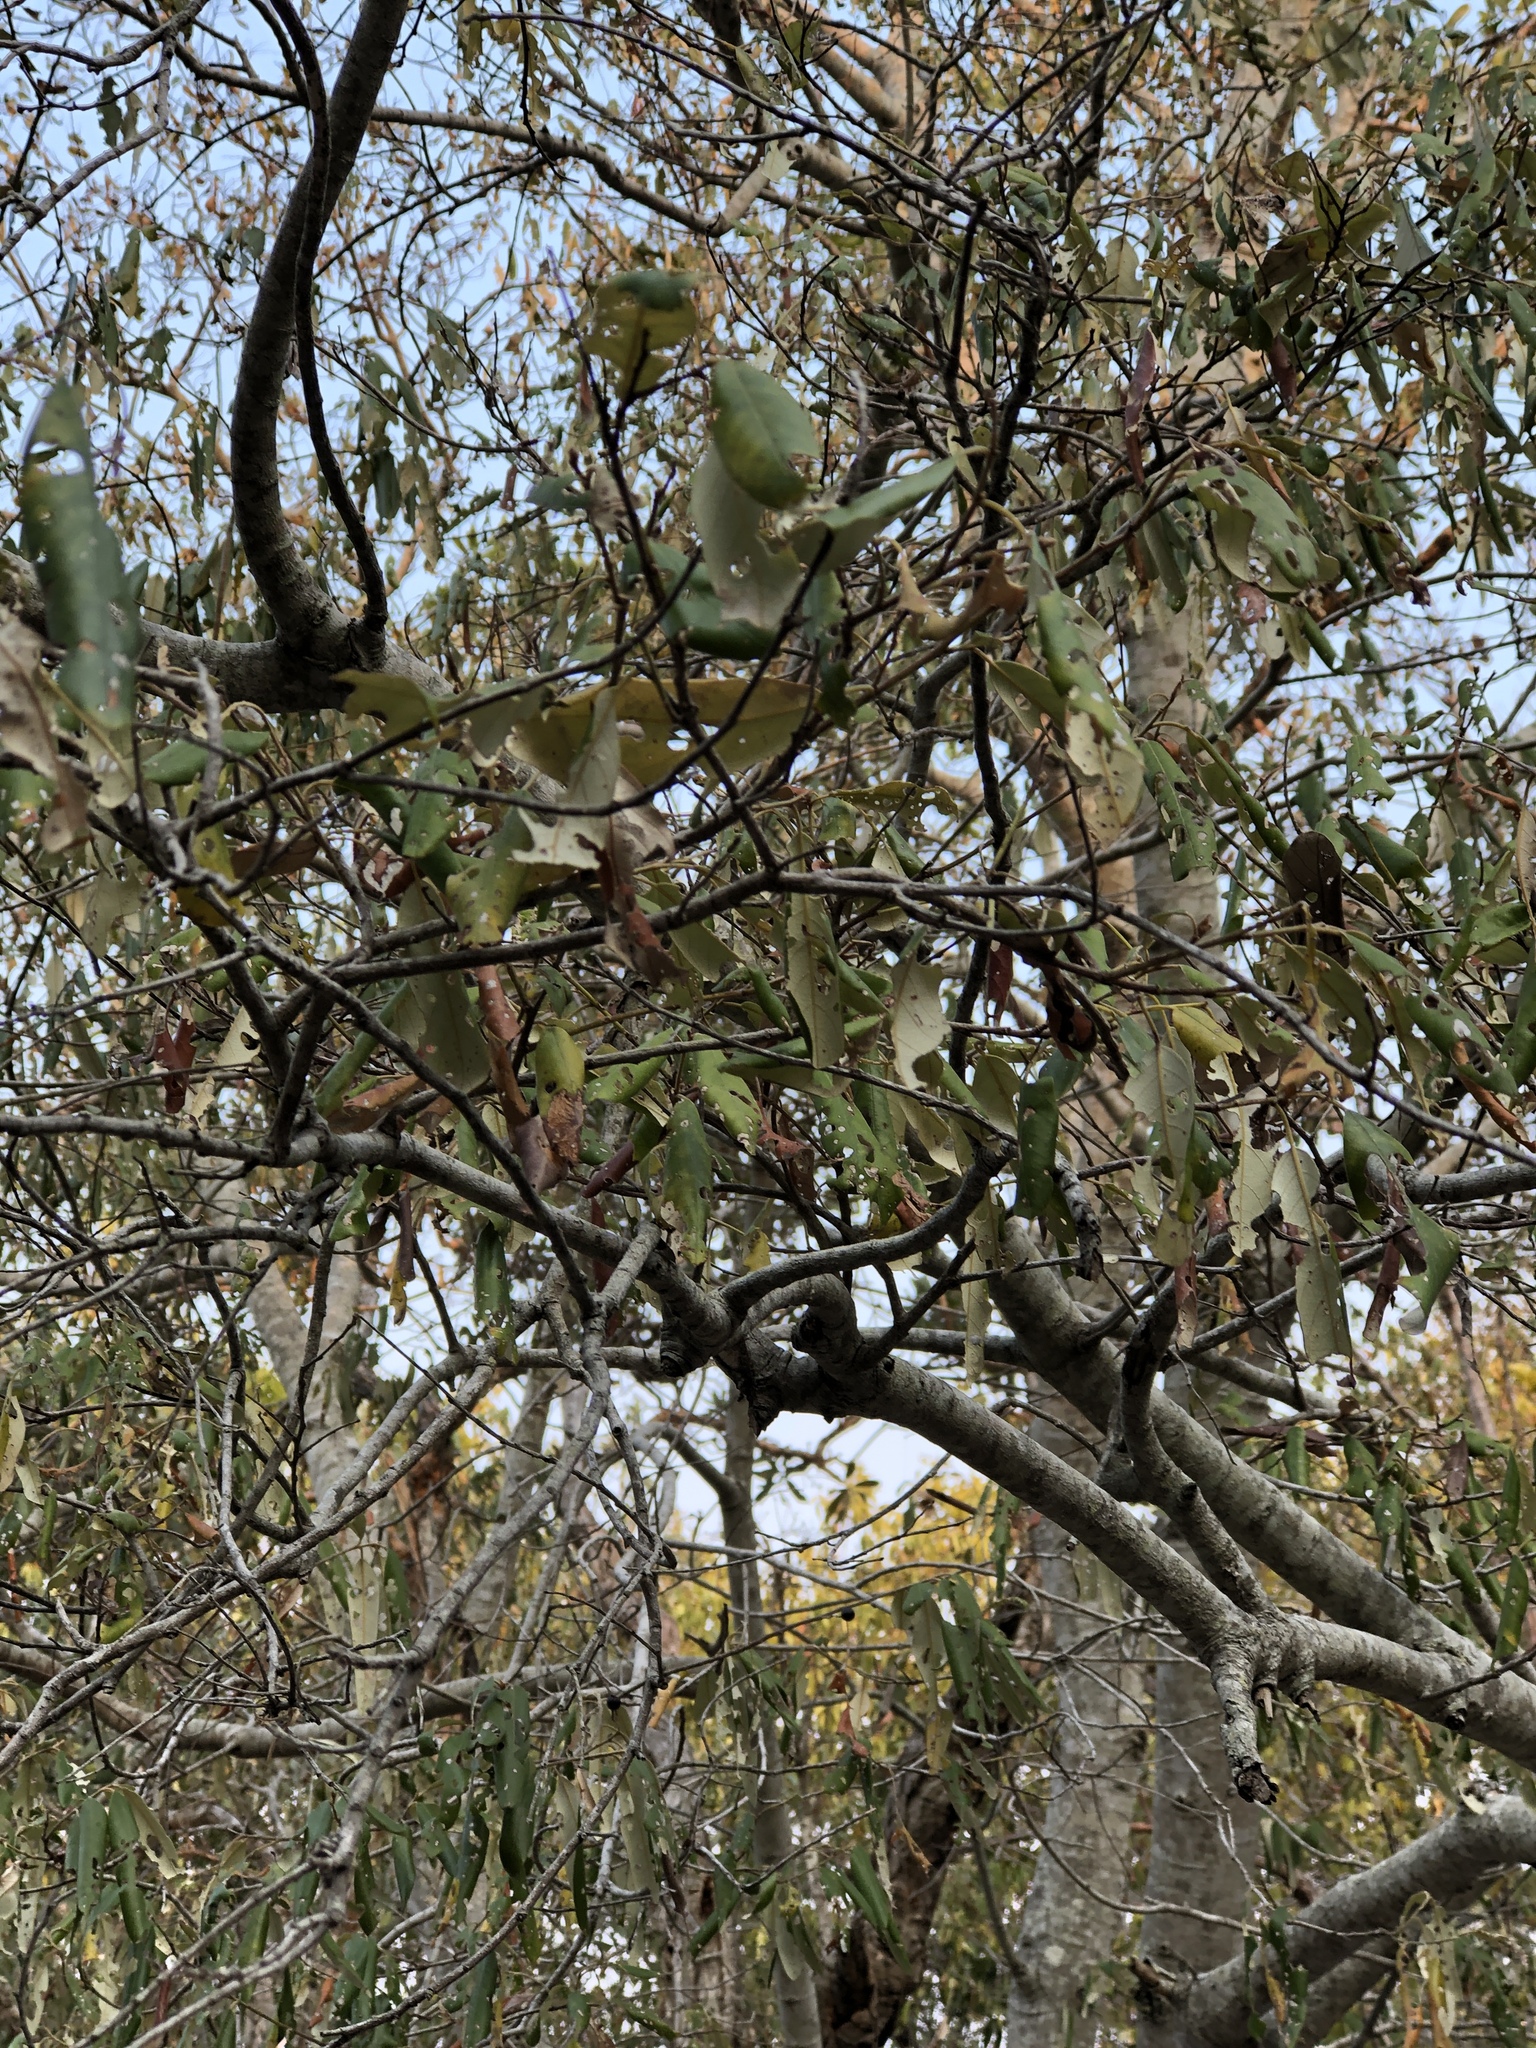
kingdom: Plantae
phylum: Tracheophyta
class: Magnoliopsida
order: Rosales
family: Rhamnaceae
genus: Alphitonia
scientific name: Alphitonia excelsa
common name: Red ash
